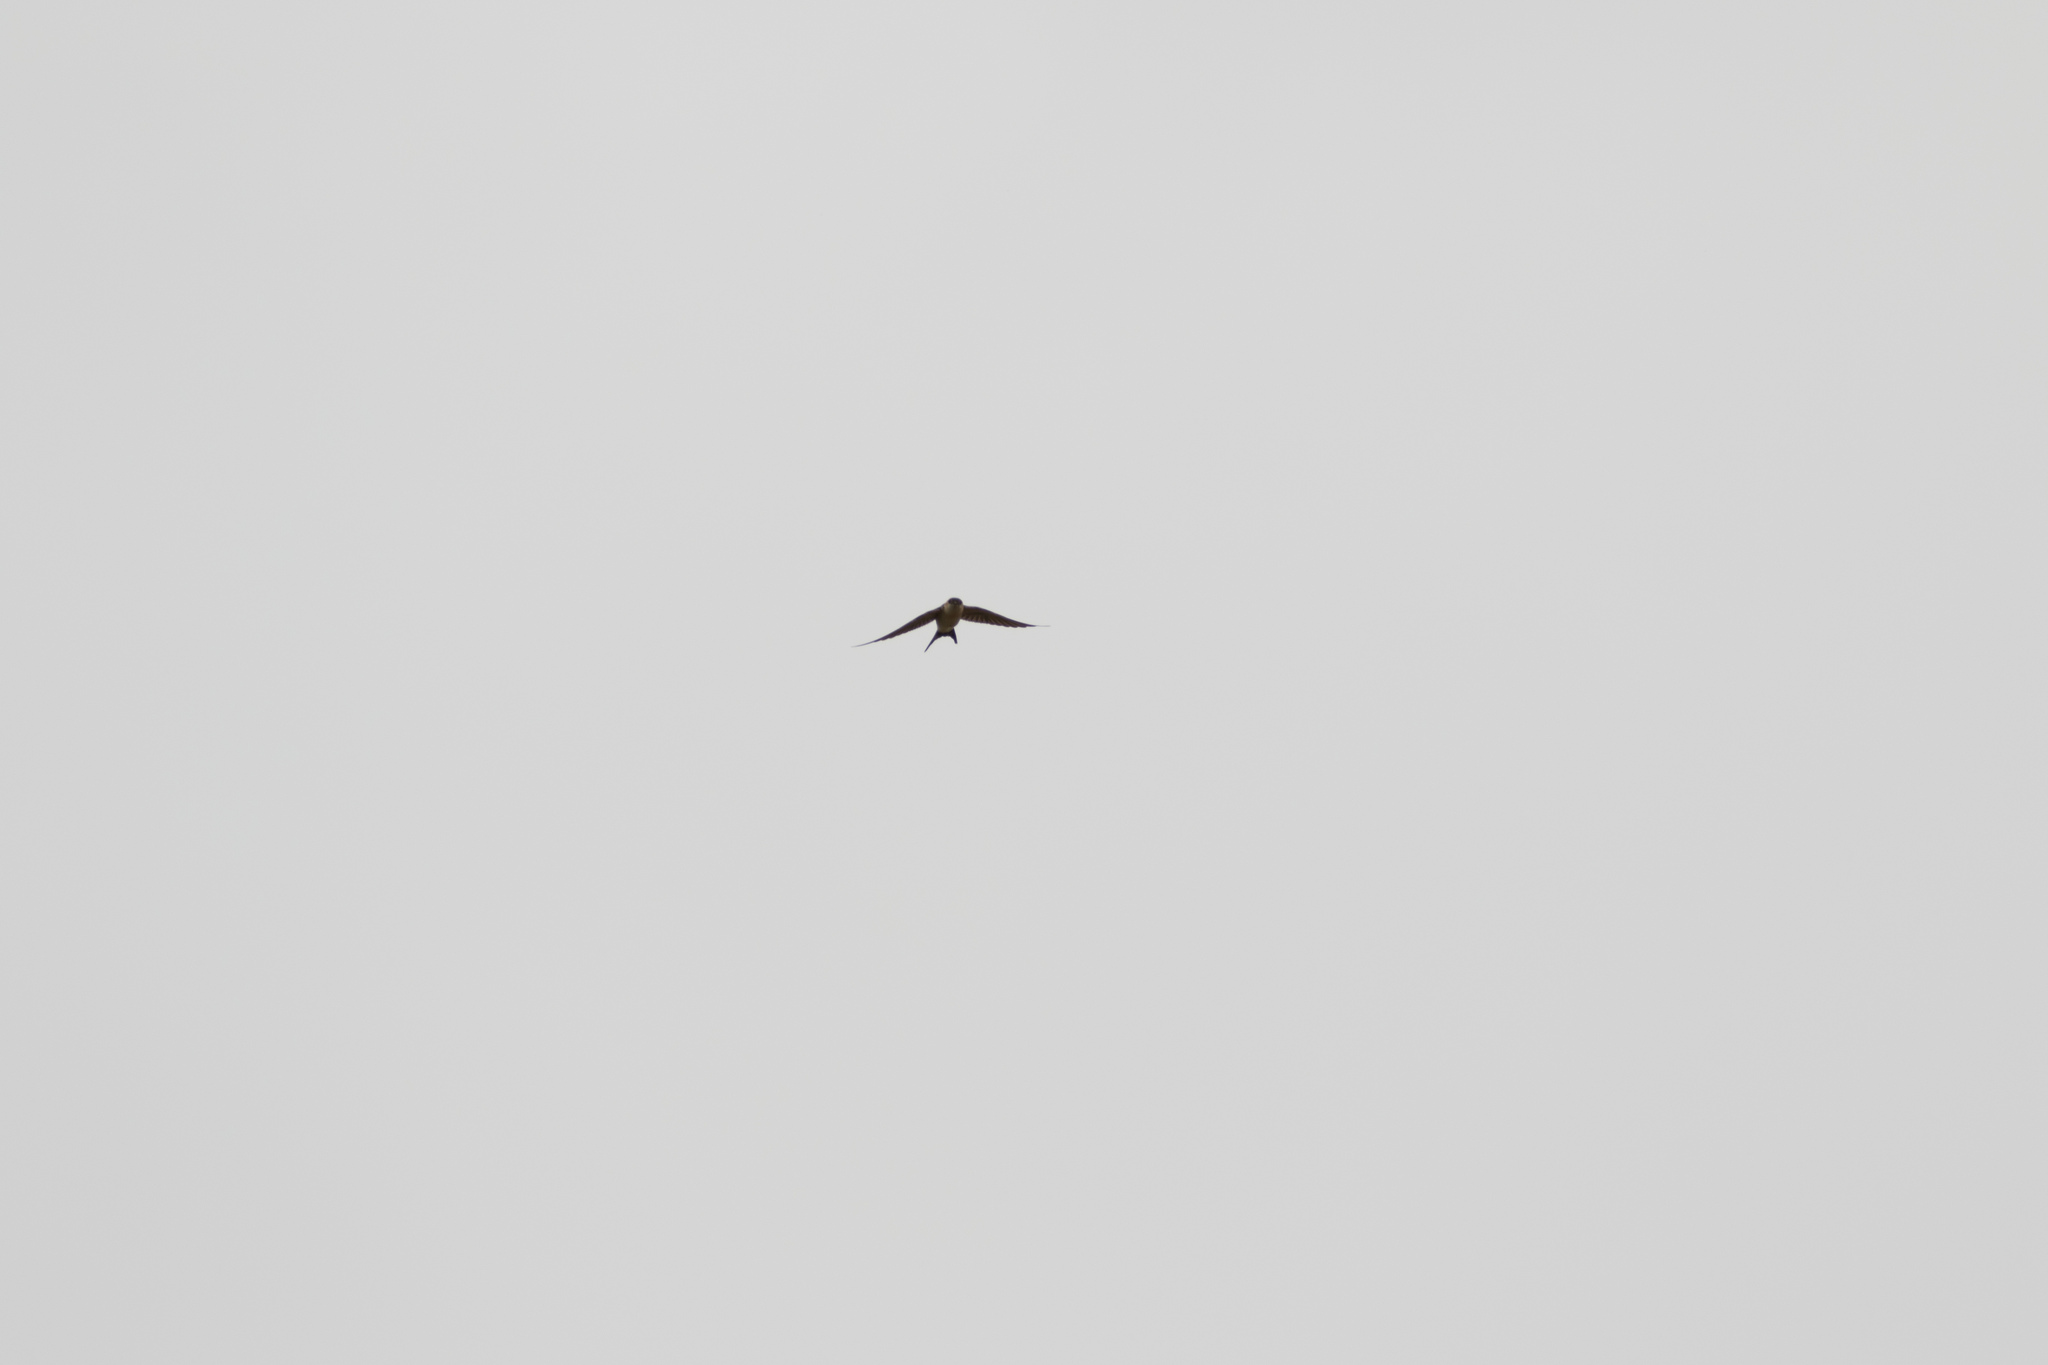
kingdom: Animalia
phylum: Chordata
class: Aves
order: Passeriformes
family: Hirundinidae
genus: Cecropis
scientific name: Cecropis daurica
